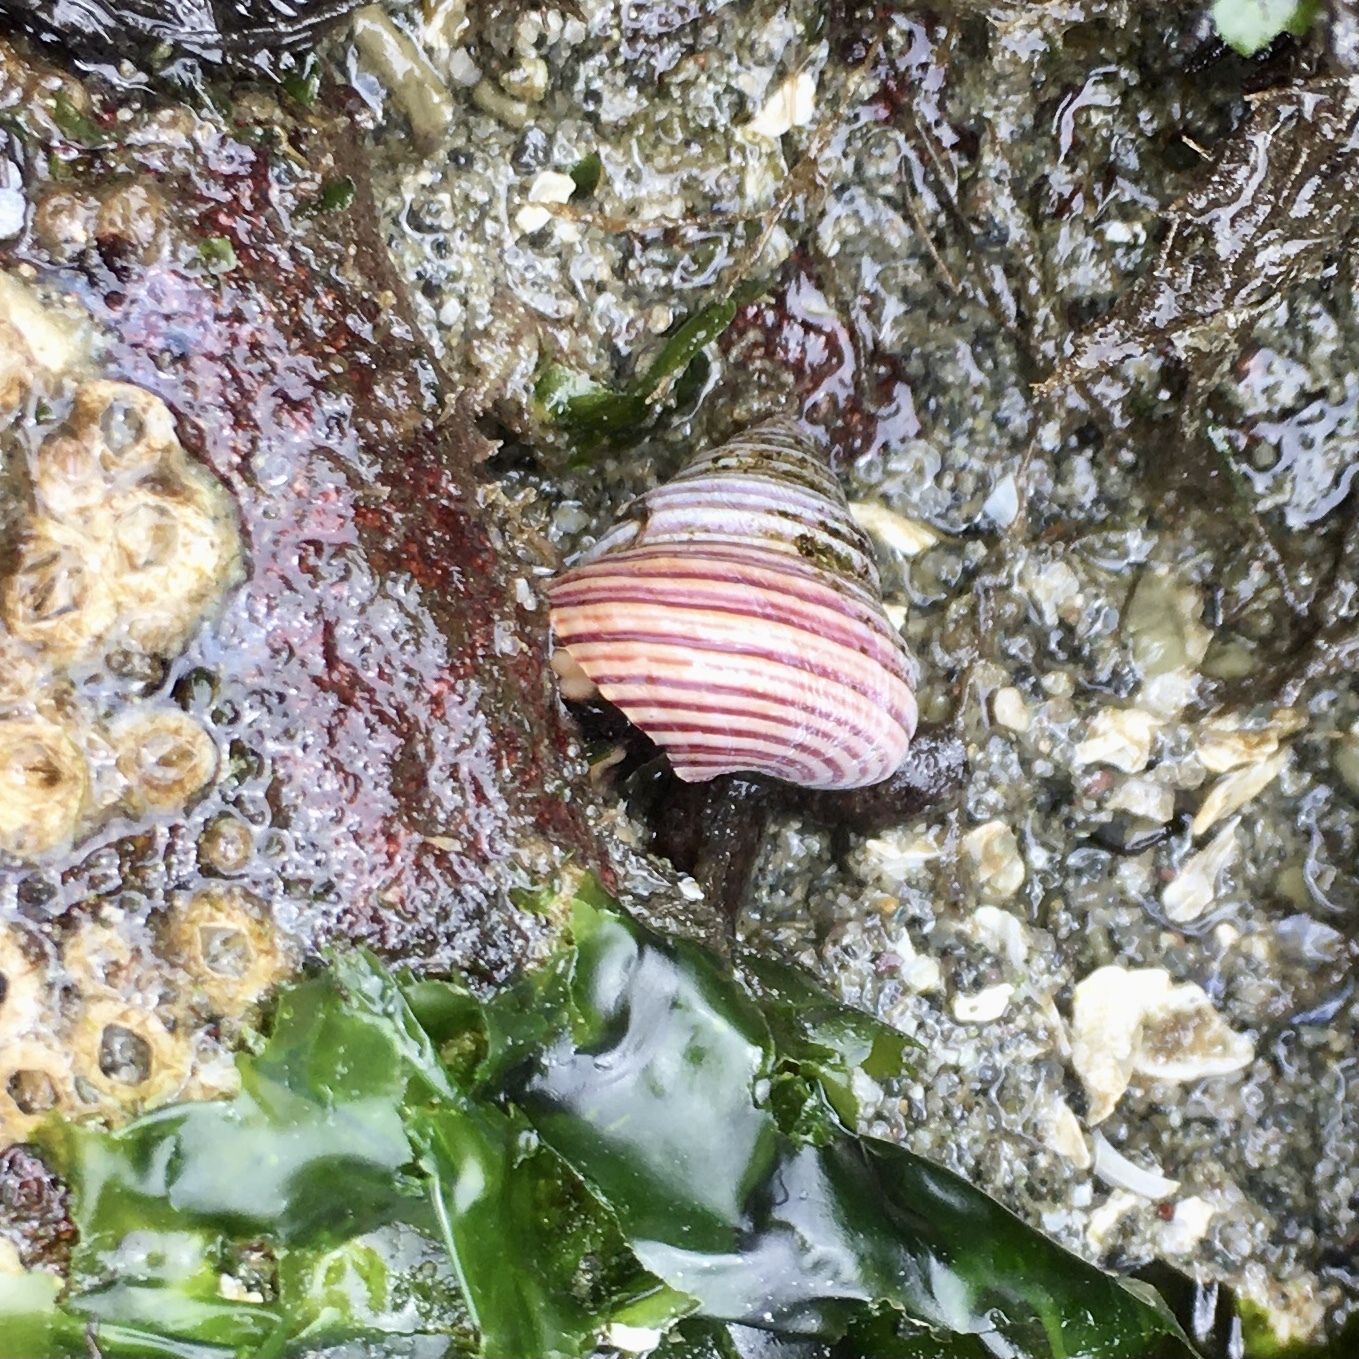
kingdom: Animalia
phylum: Mollusca
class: Gastropoda
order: Trochida
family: Calliostomatidae
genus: Calliostoma
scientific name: Calliostoma ligatum
